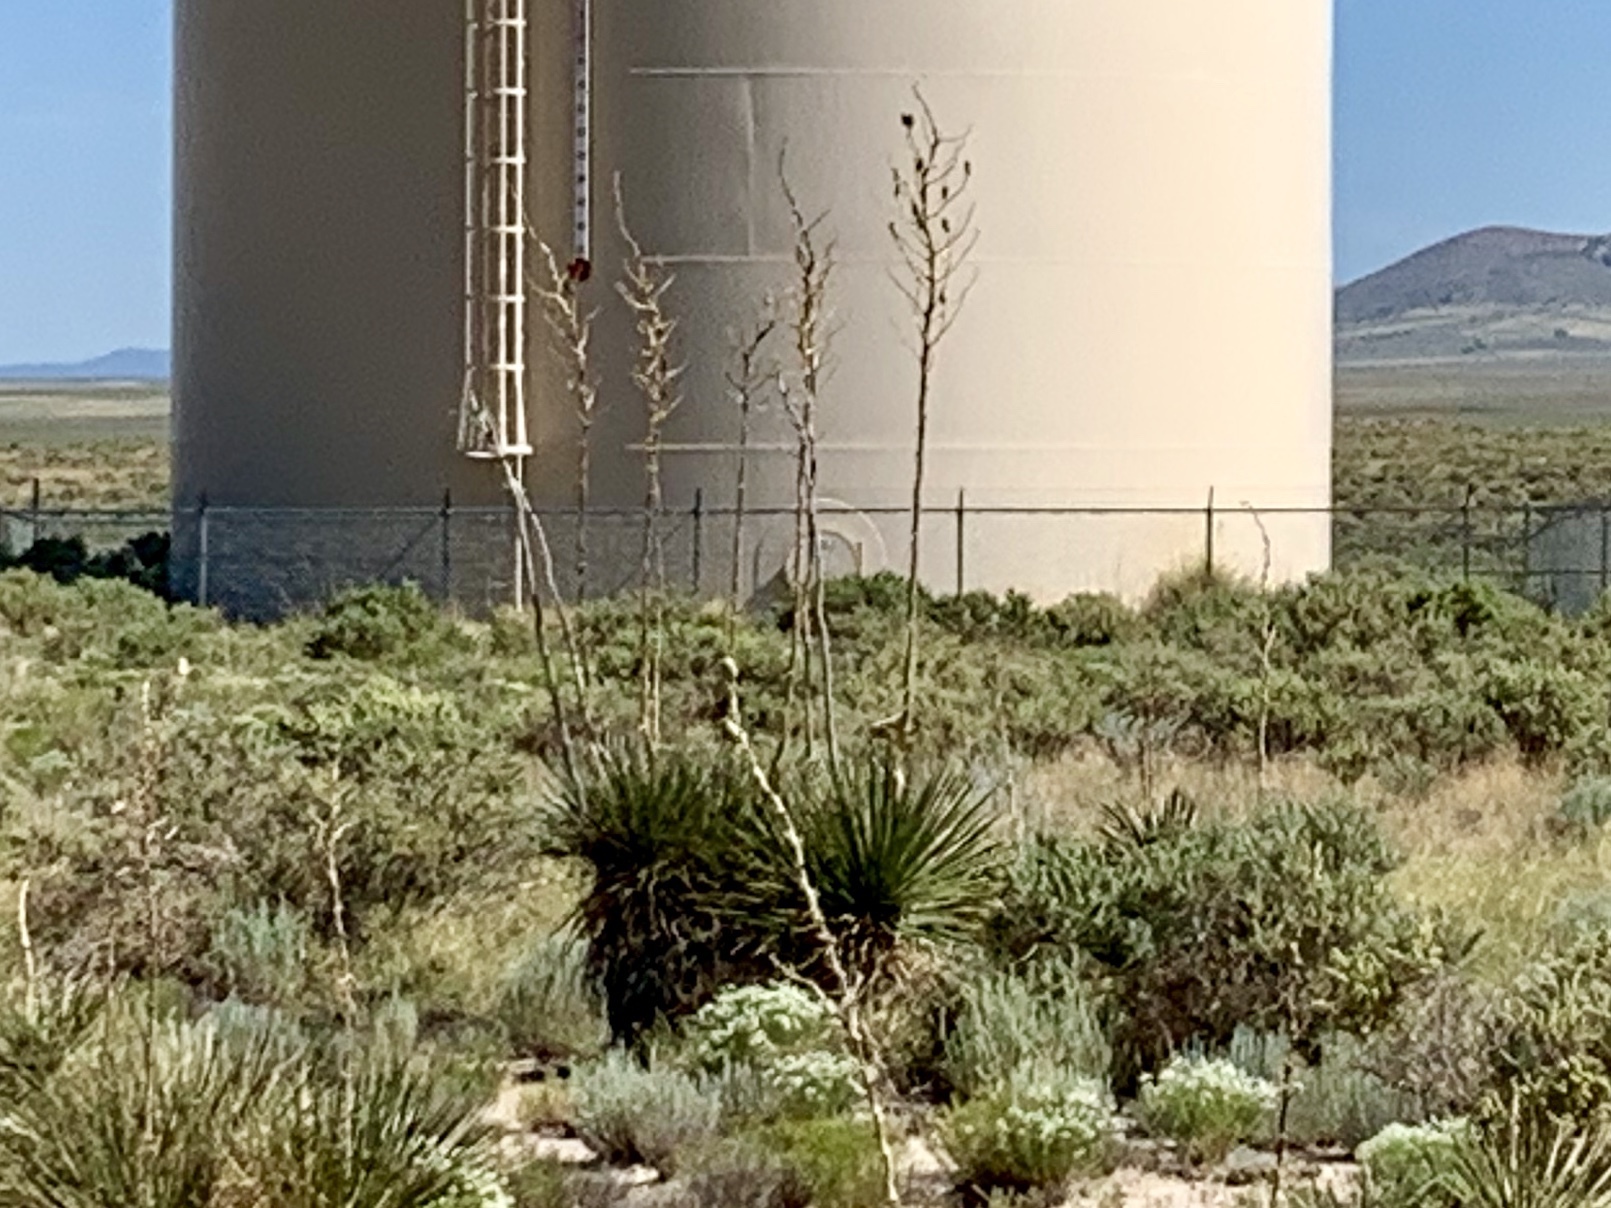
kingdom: Plantae
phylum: Tracheophyta
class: Liliopsida
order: Asparagales
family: Asparagaceae
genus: Yucca
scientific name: Yucca elata
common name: Palmella
